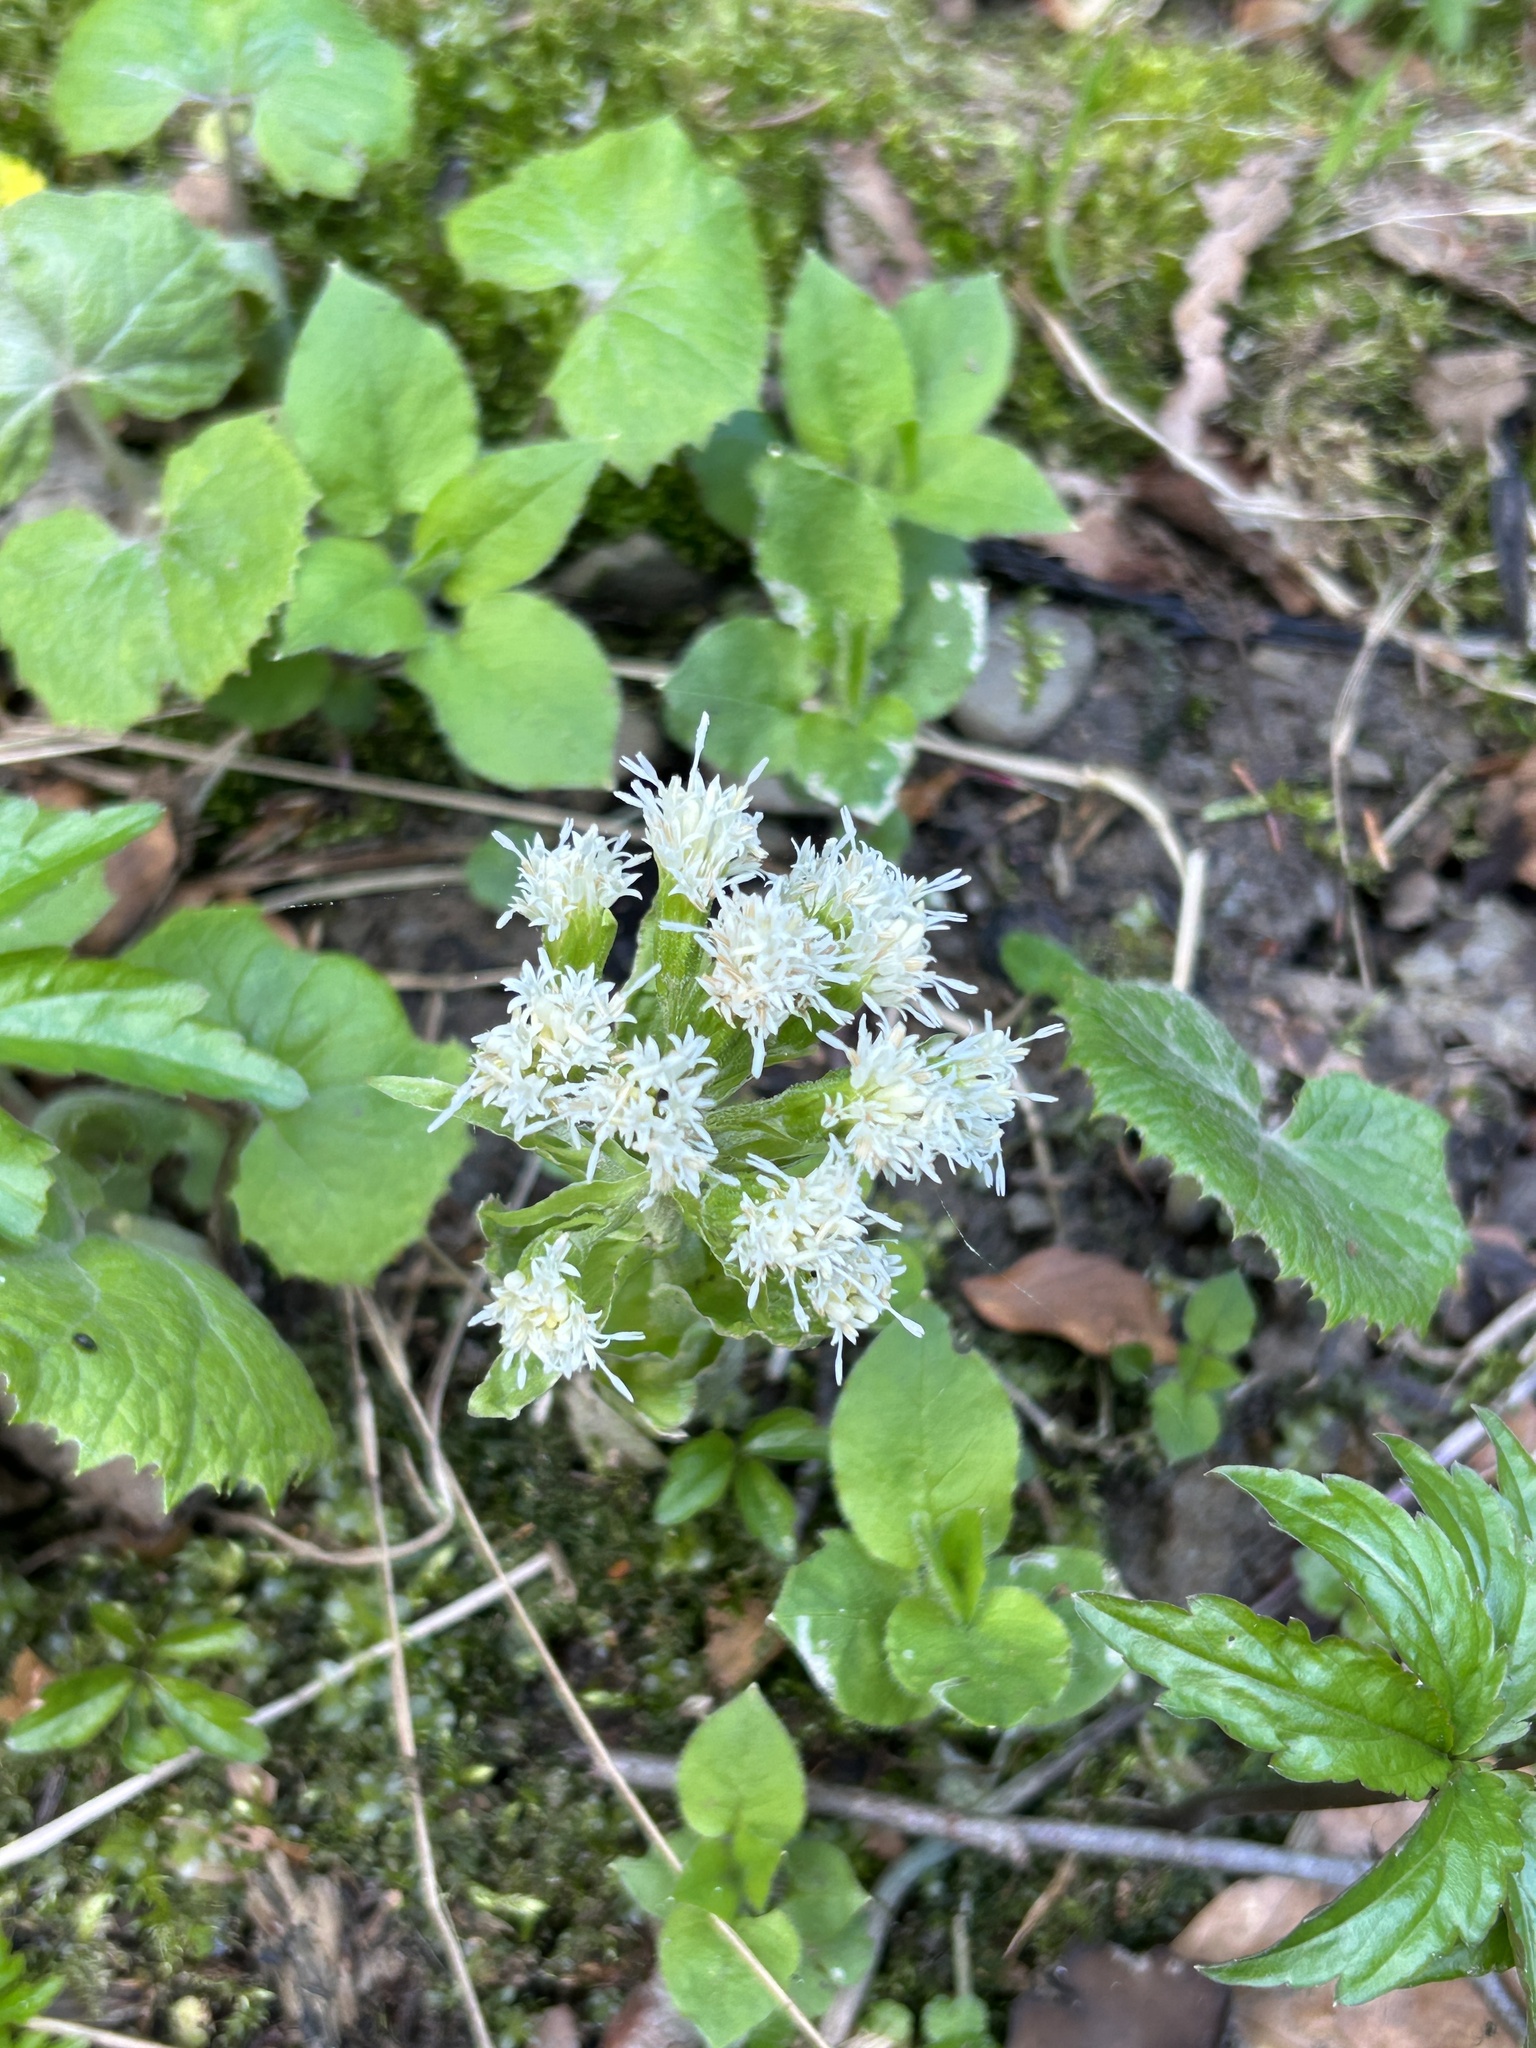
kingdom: Plantae
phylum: Tracheophyta
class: Magnoliopsida
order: Asterales
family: Asteraceae
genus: Petasites
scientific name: Petasites albus
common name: White butterbur
